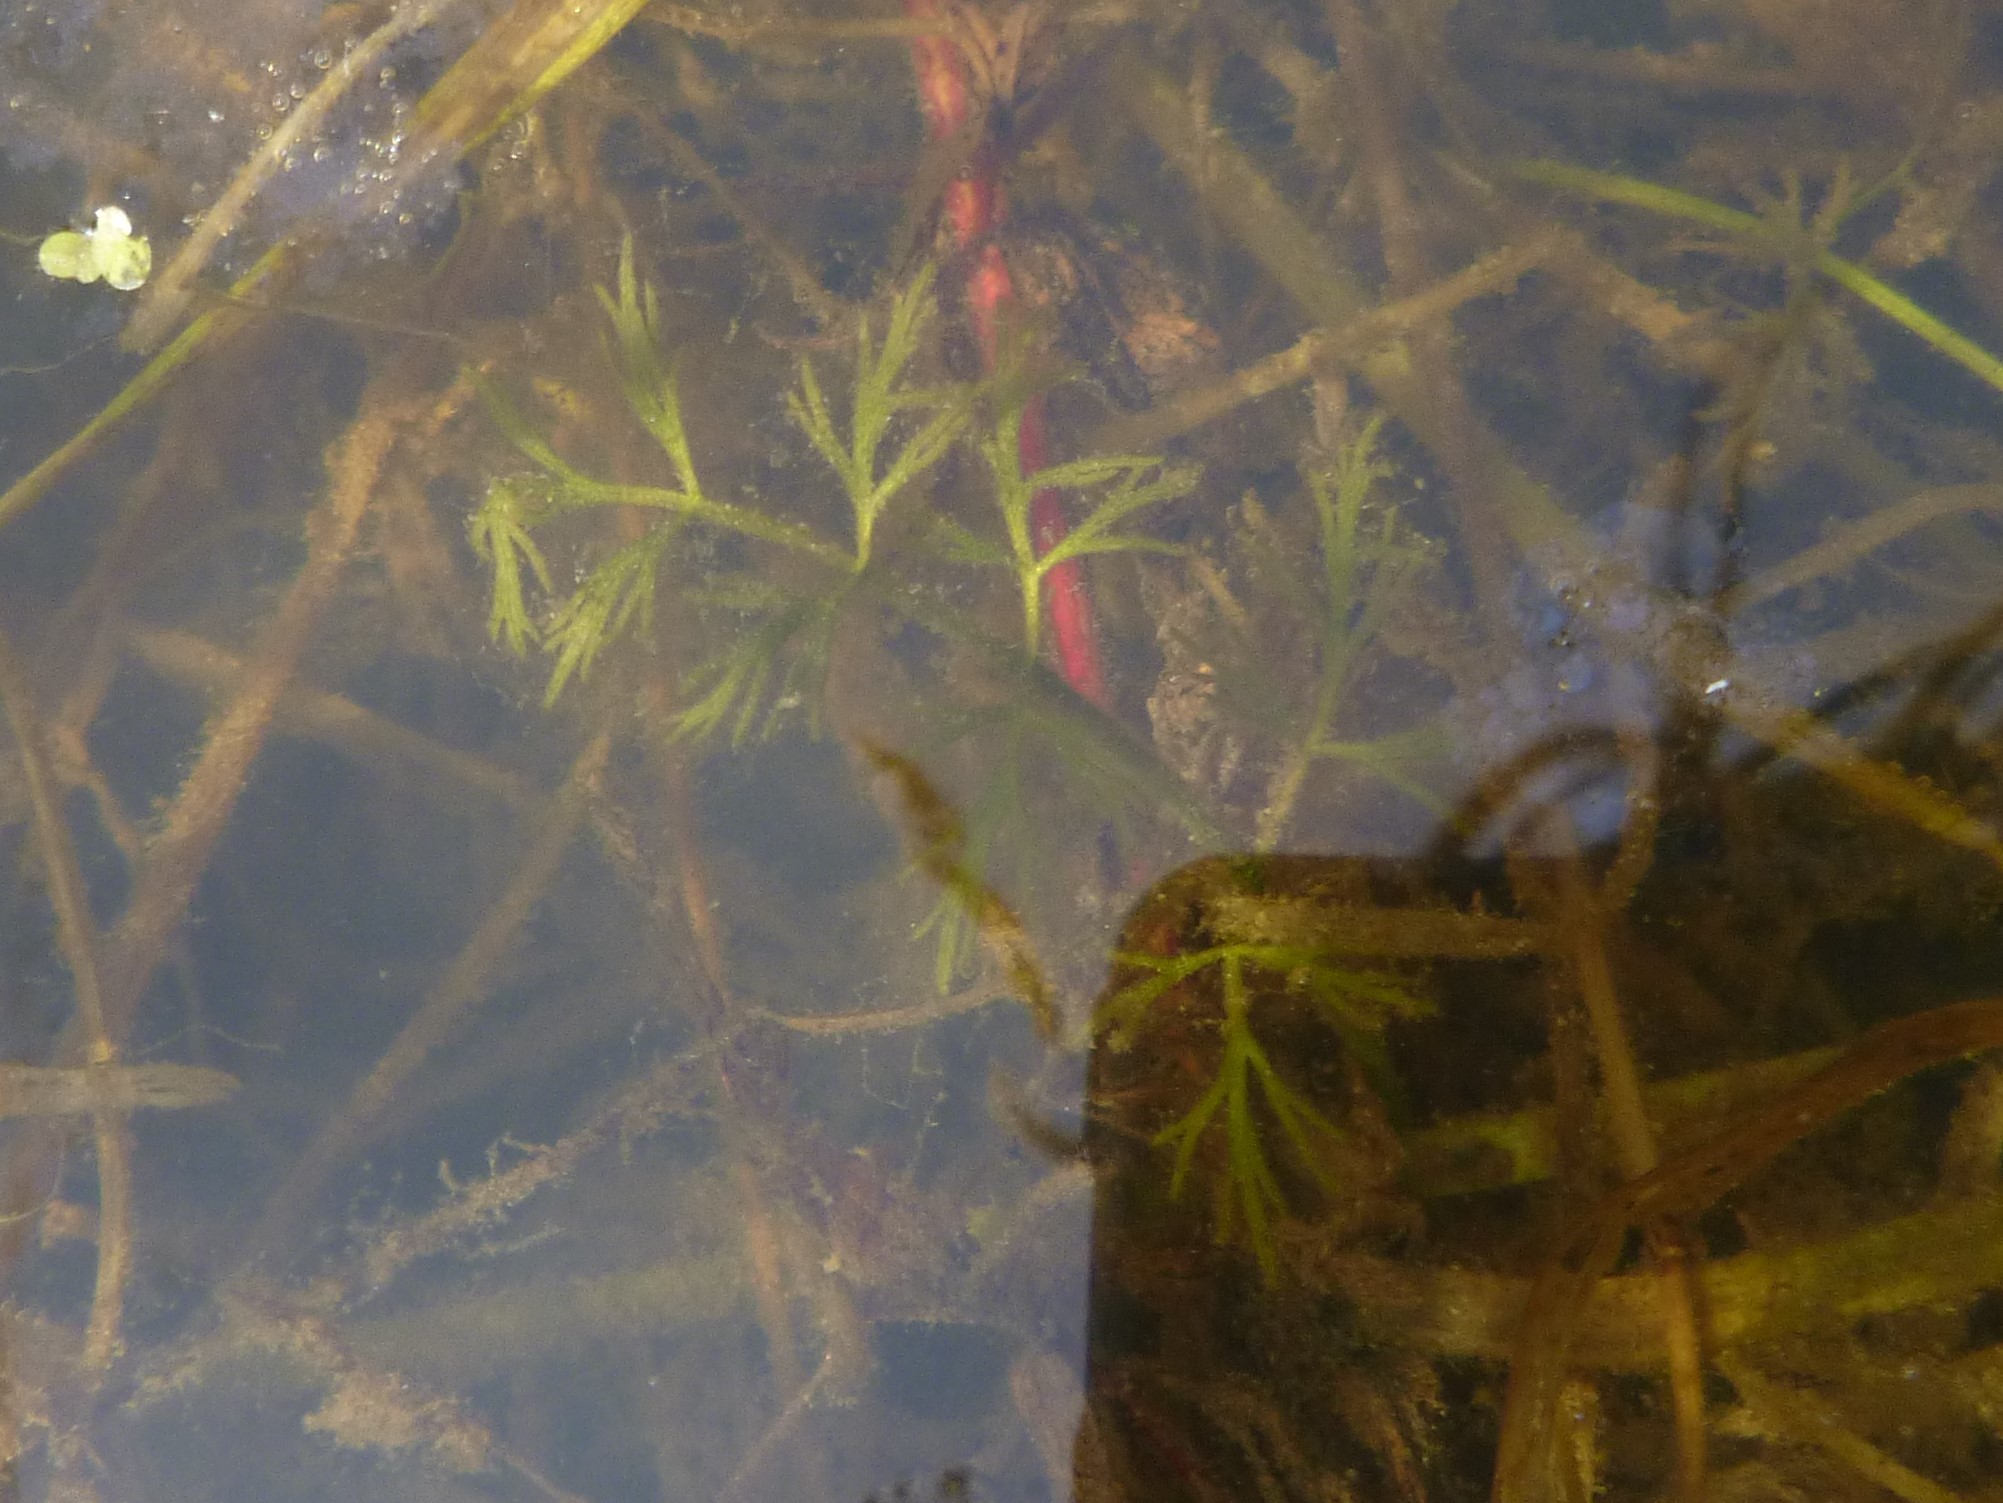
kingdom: Plantae
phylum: Tracheophyta
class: Magnoliopsida
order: Apiales
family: Apiaceae
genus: Oenanthe
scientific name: Oenanthe aquatica
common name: Fine-leaved water-dropwort
